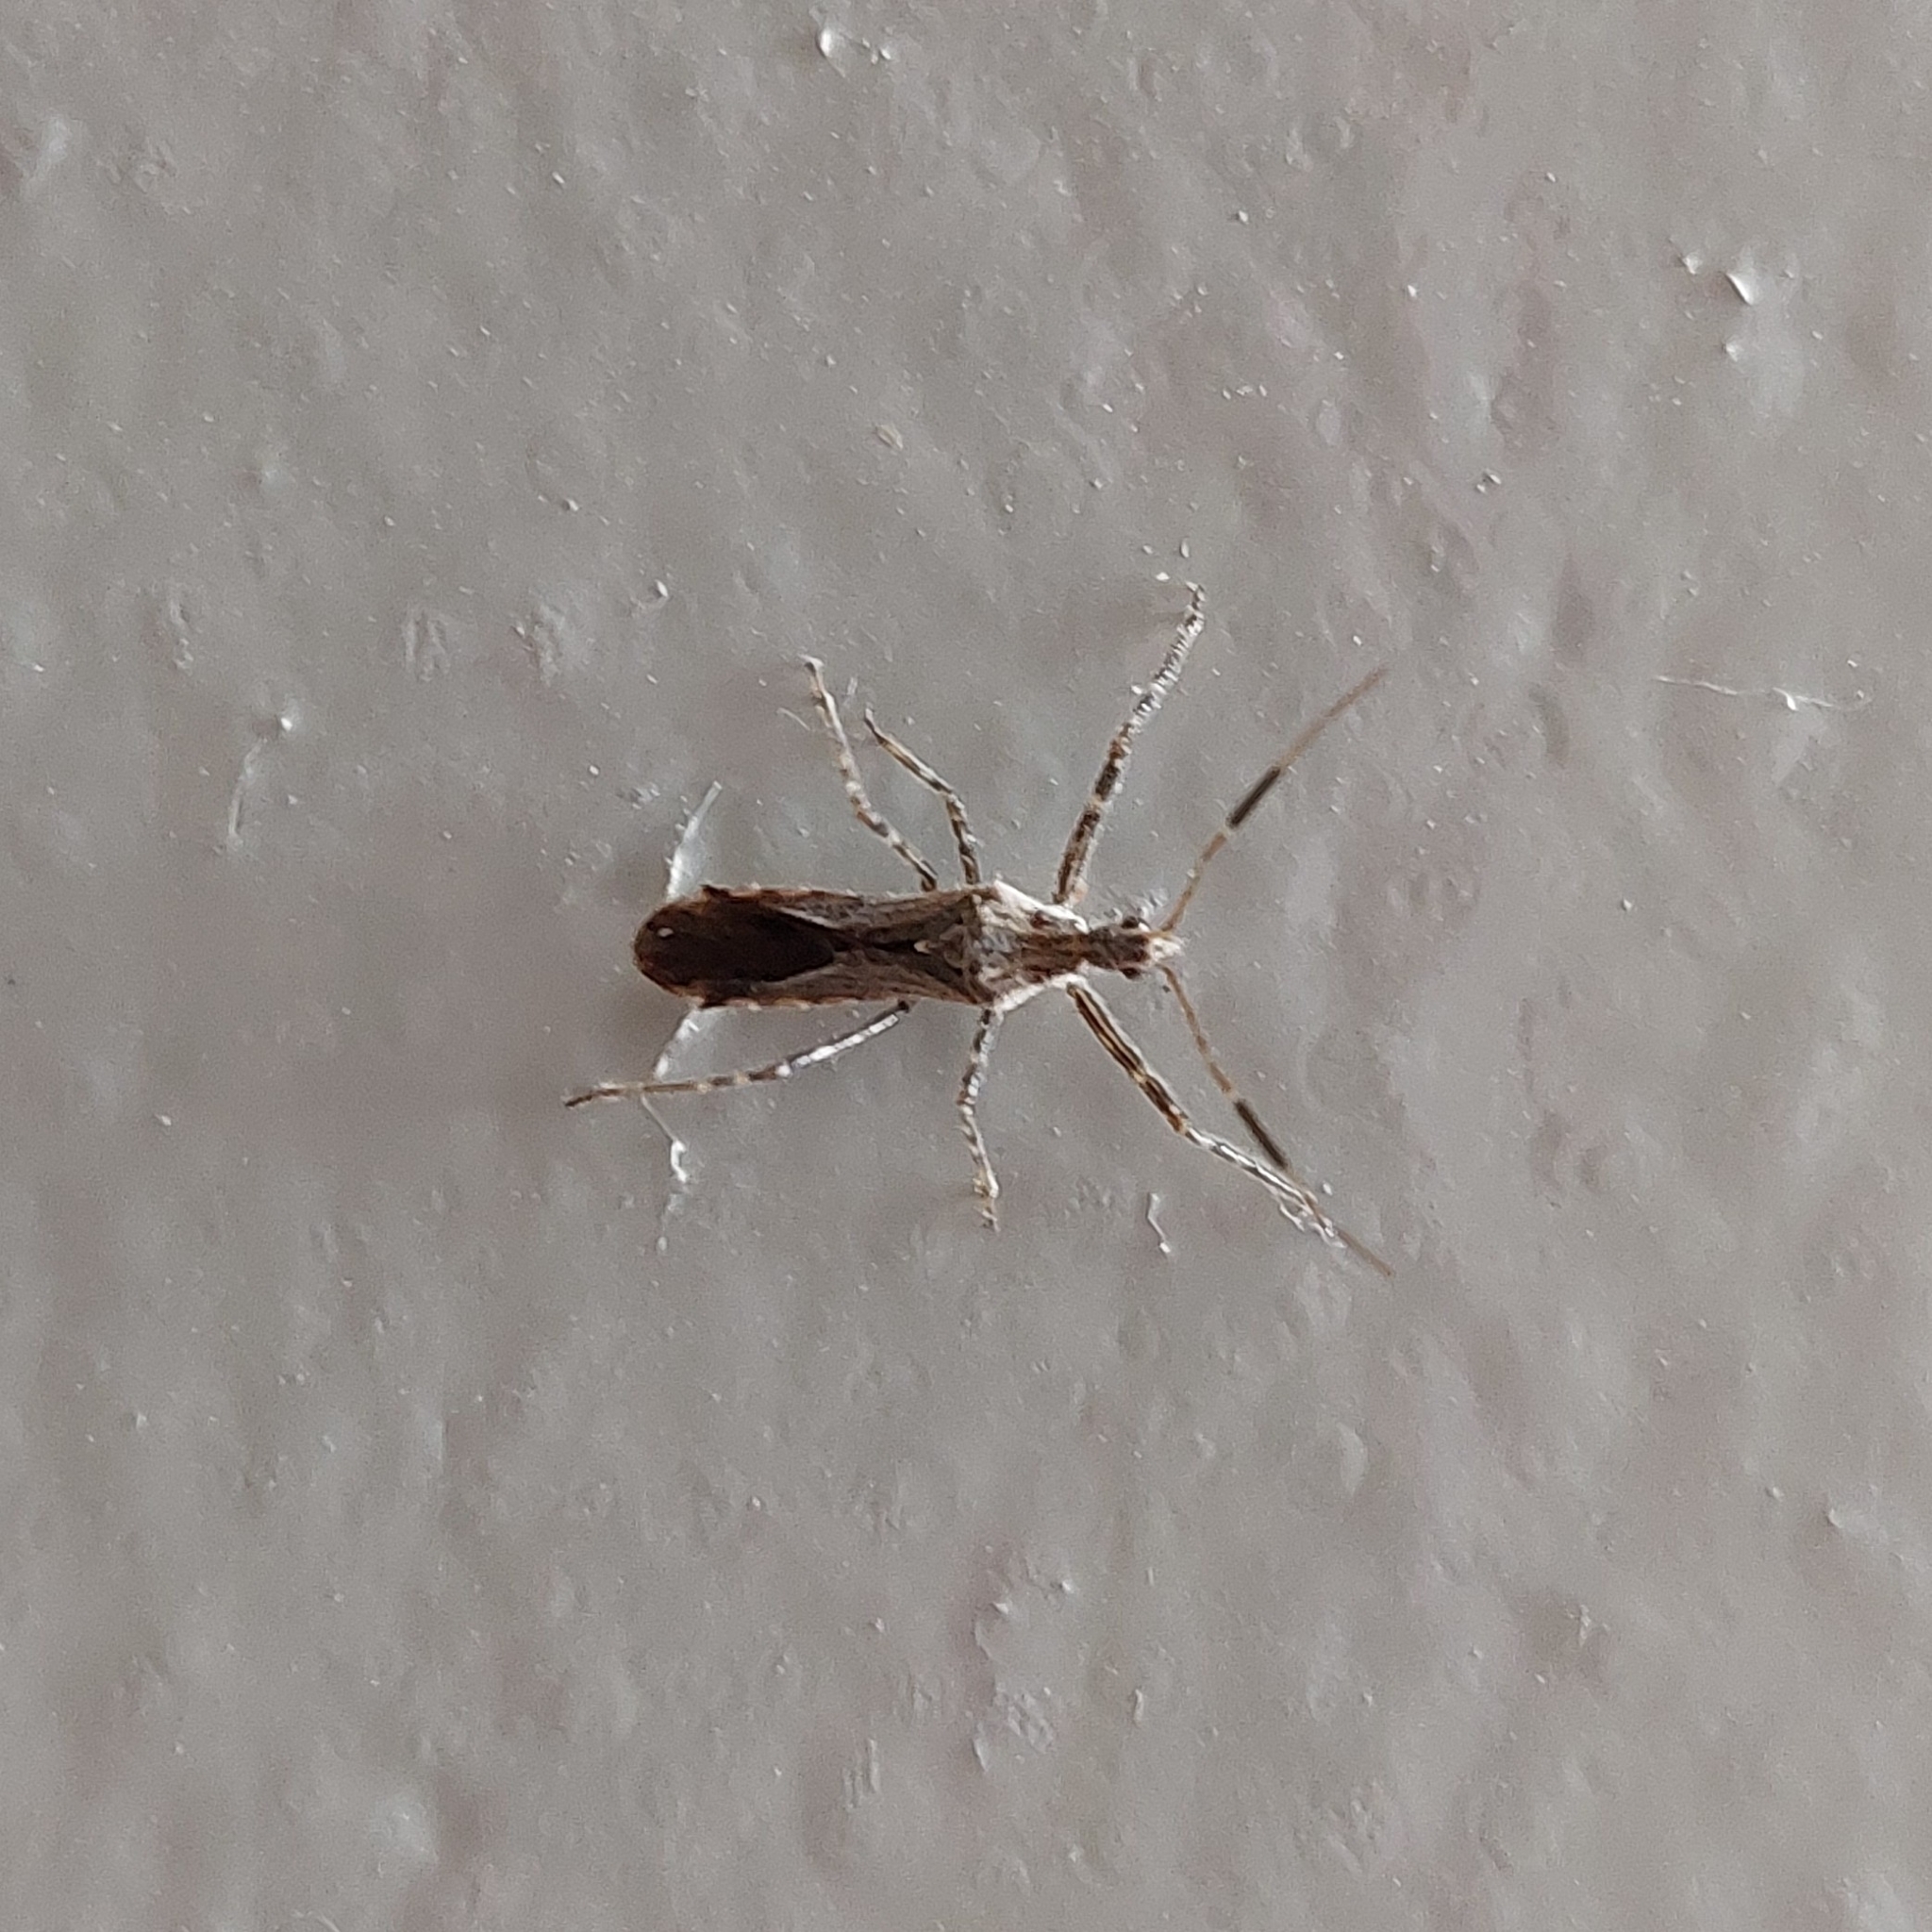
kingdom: Animalia
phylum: Arthropoda
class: Insecta
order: Hemiptera
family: Reduviidae
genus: Atrachelus
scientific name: Atrachelus cinereus
